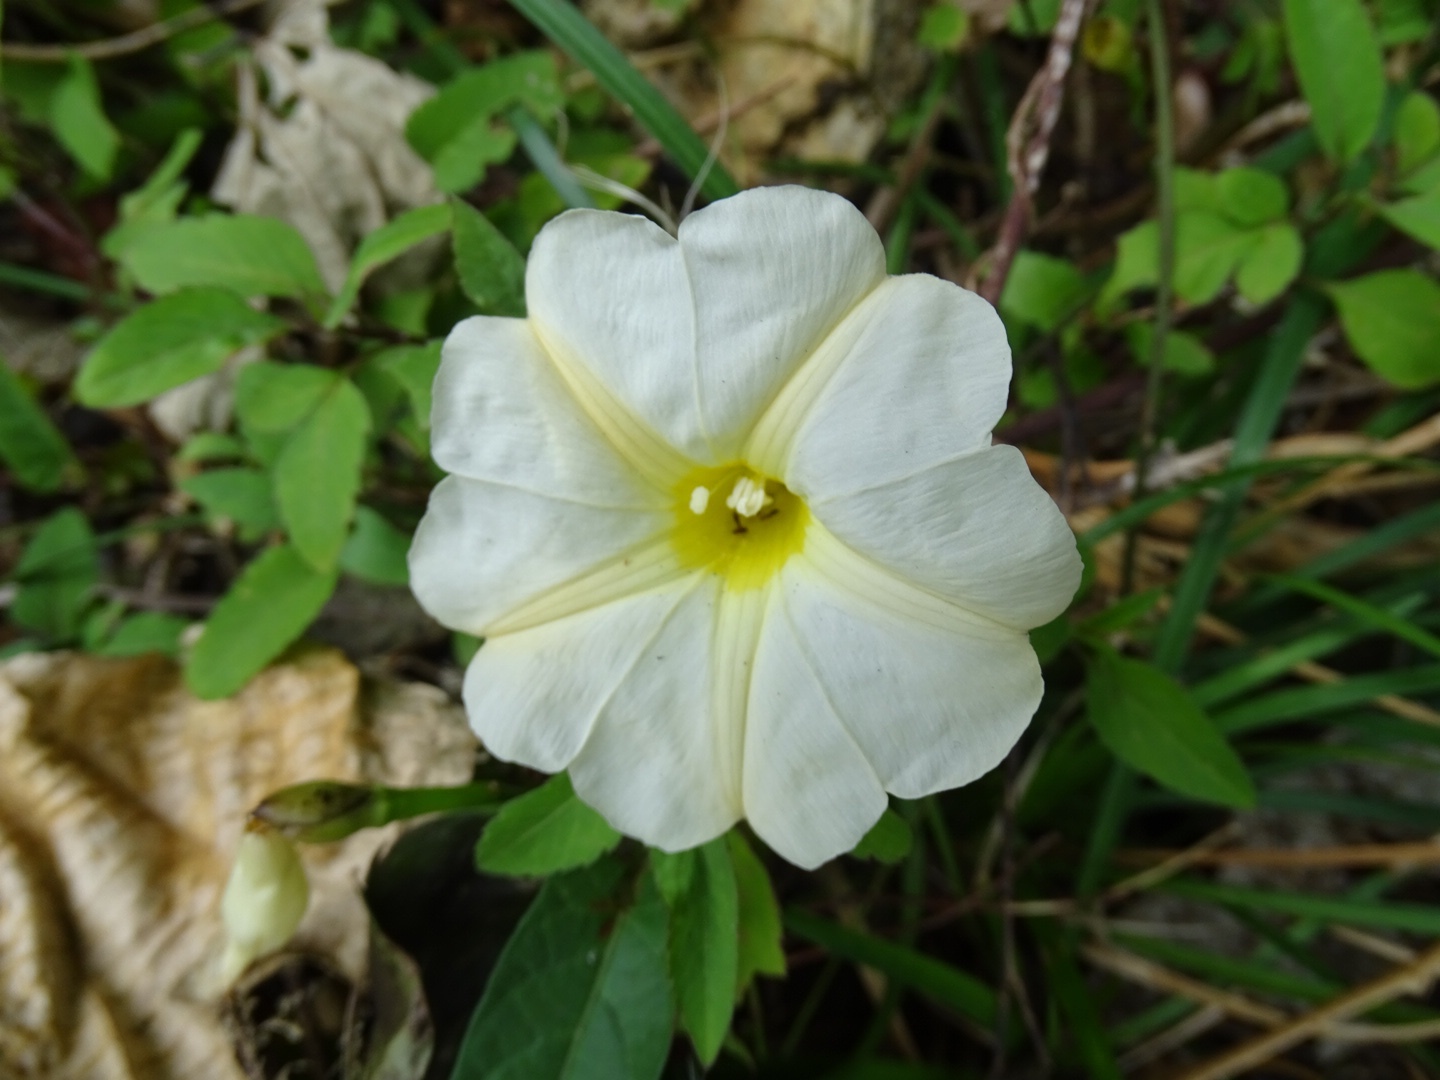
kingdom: Plantae
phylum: Tracheophyta
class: Magnoliopsida
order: Solanales
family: Convolvulaceae
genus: Ipomoea
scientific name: Ipomoea obscura
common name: Obscure morning-glory
